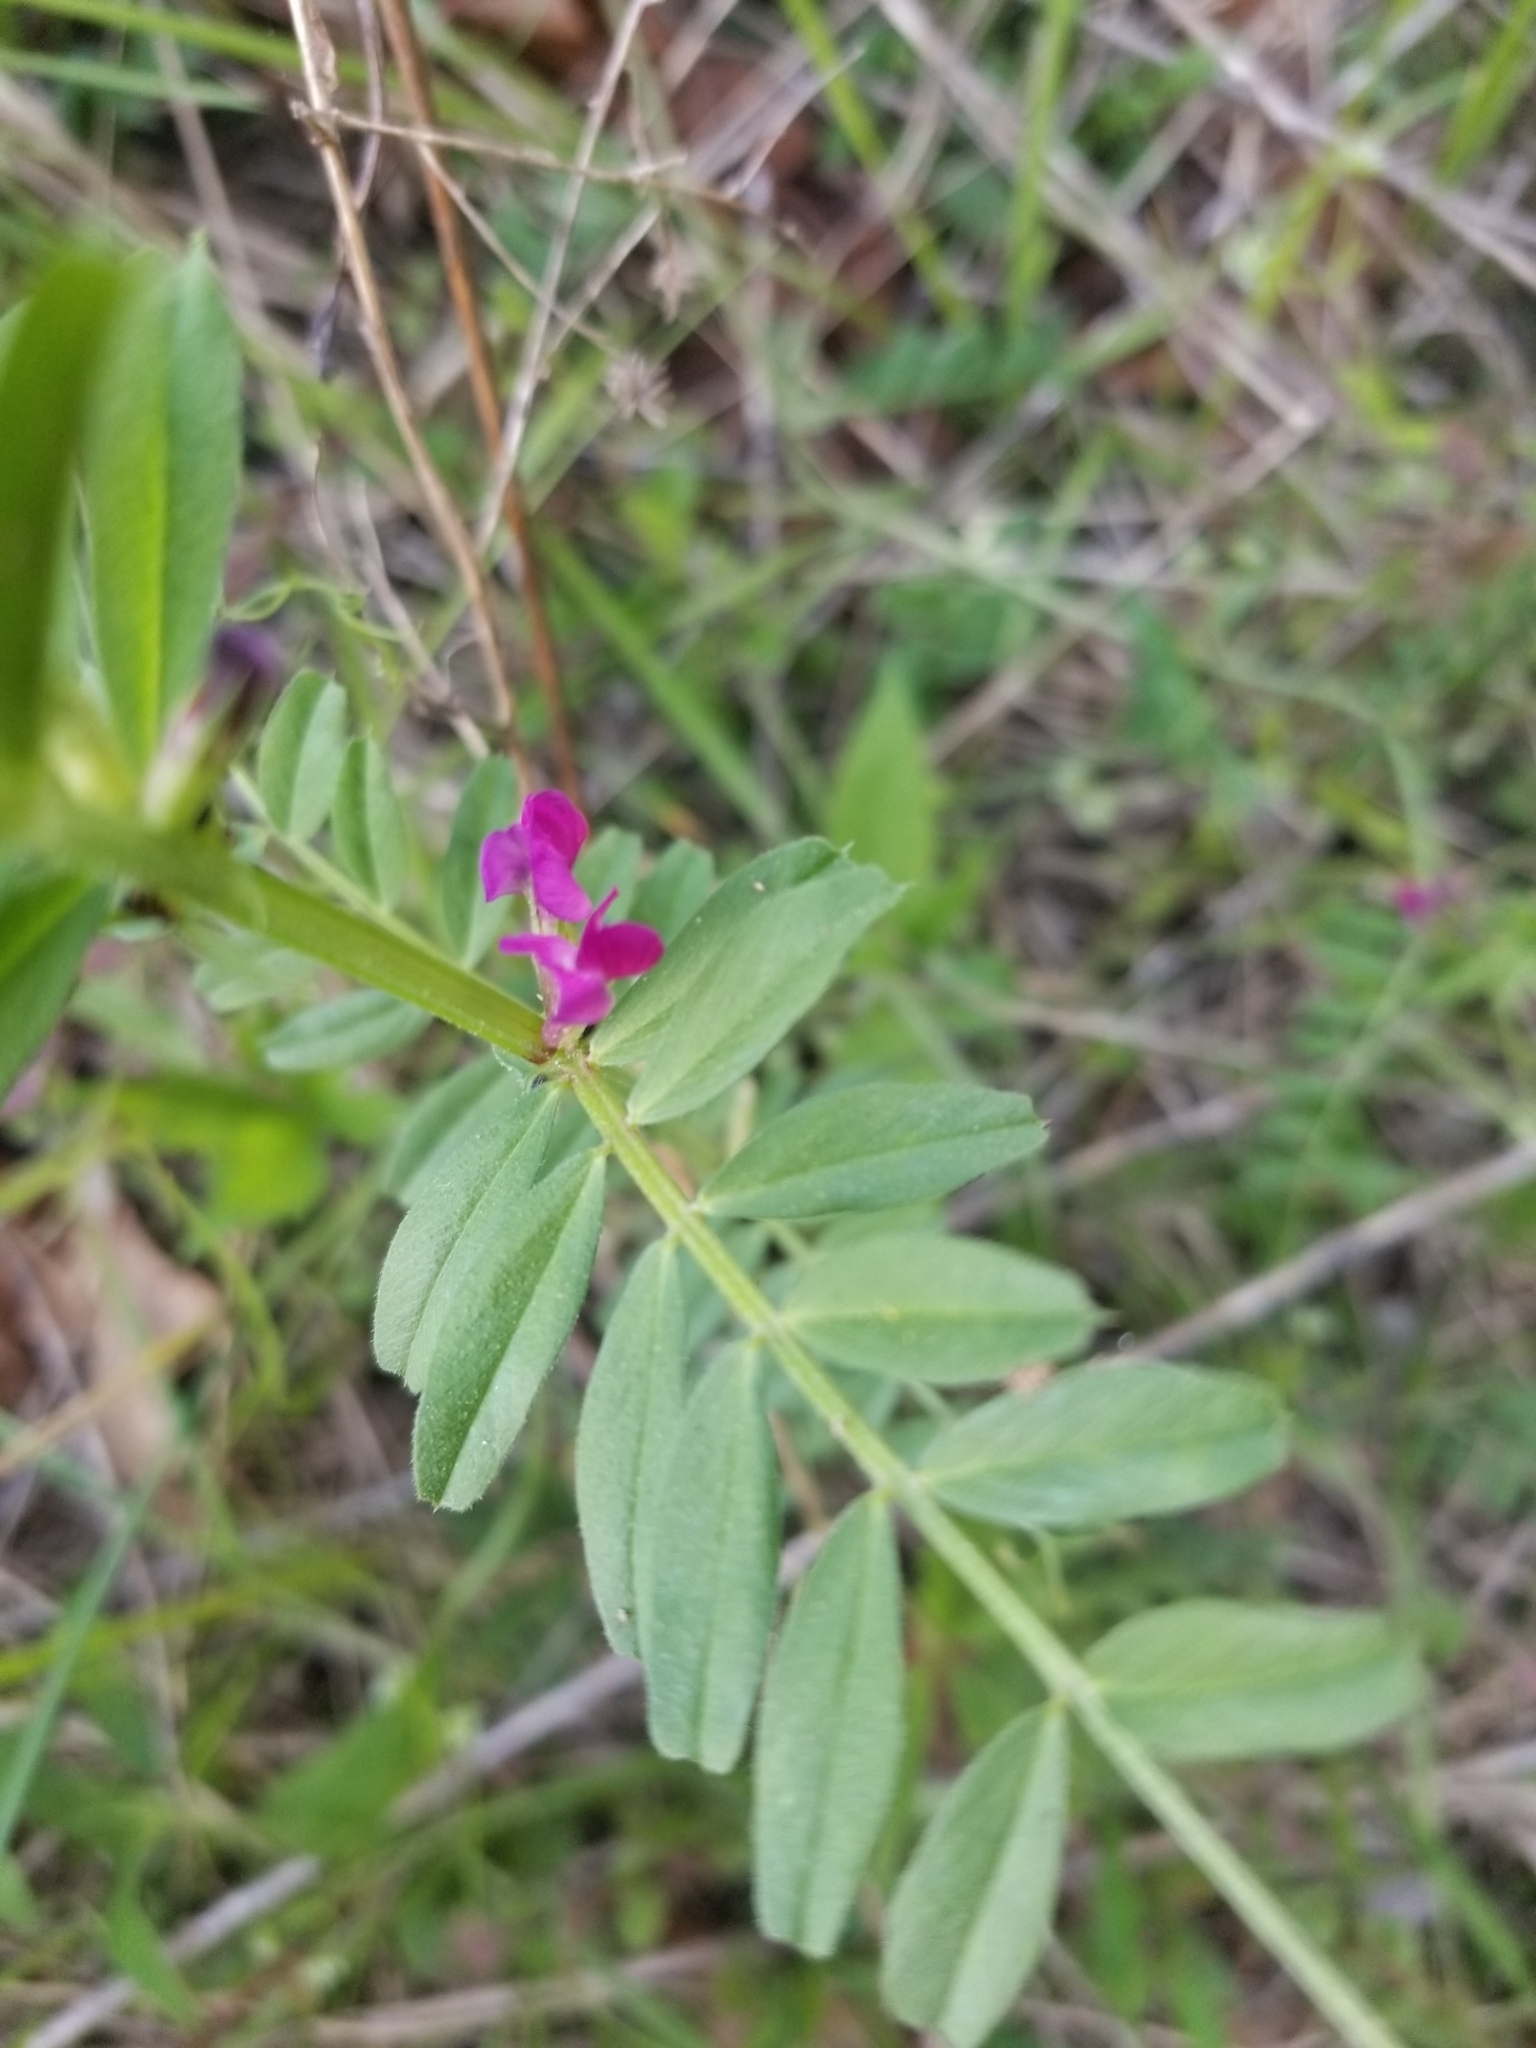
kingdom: Plantae
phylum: Tracheophyta
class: Magnoliopsida
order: Fabales
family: Fabaceae
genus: Vicia
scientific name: Vicia sativa
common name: Garden vetch
